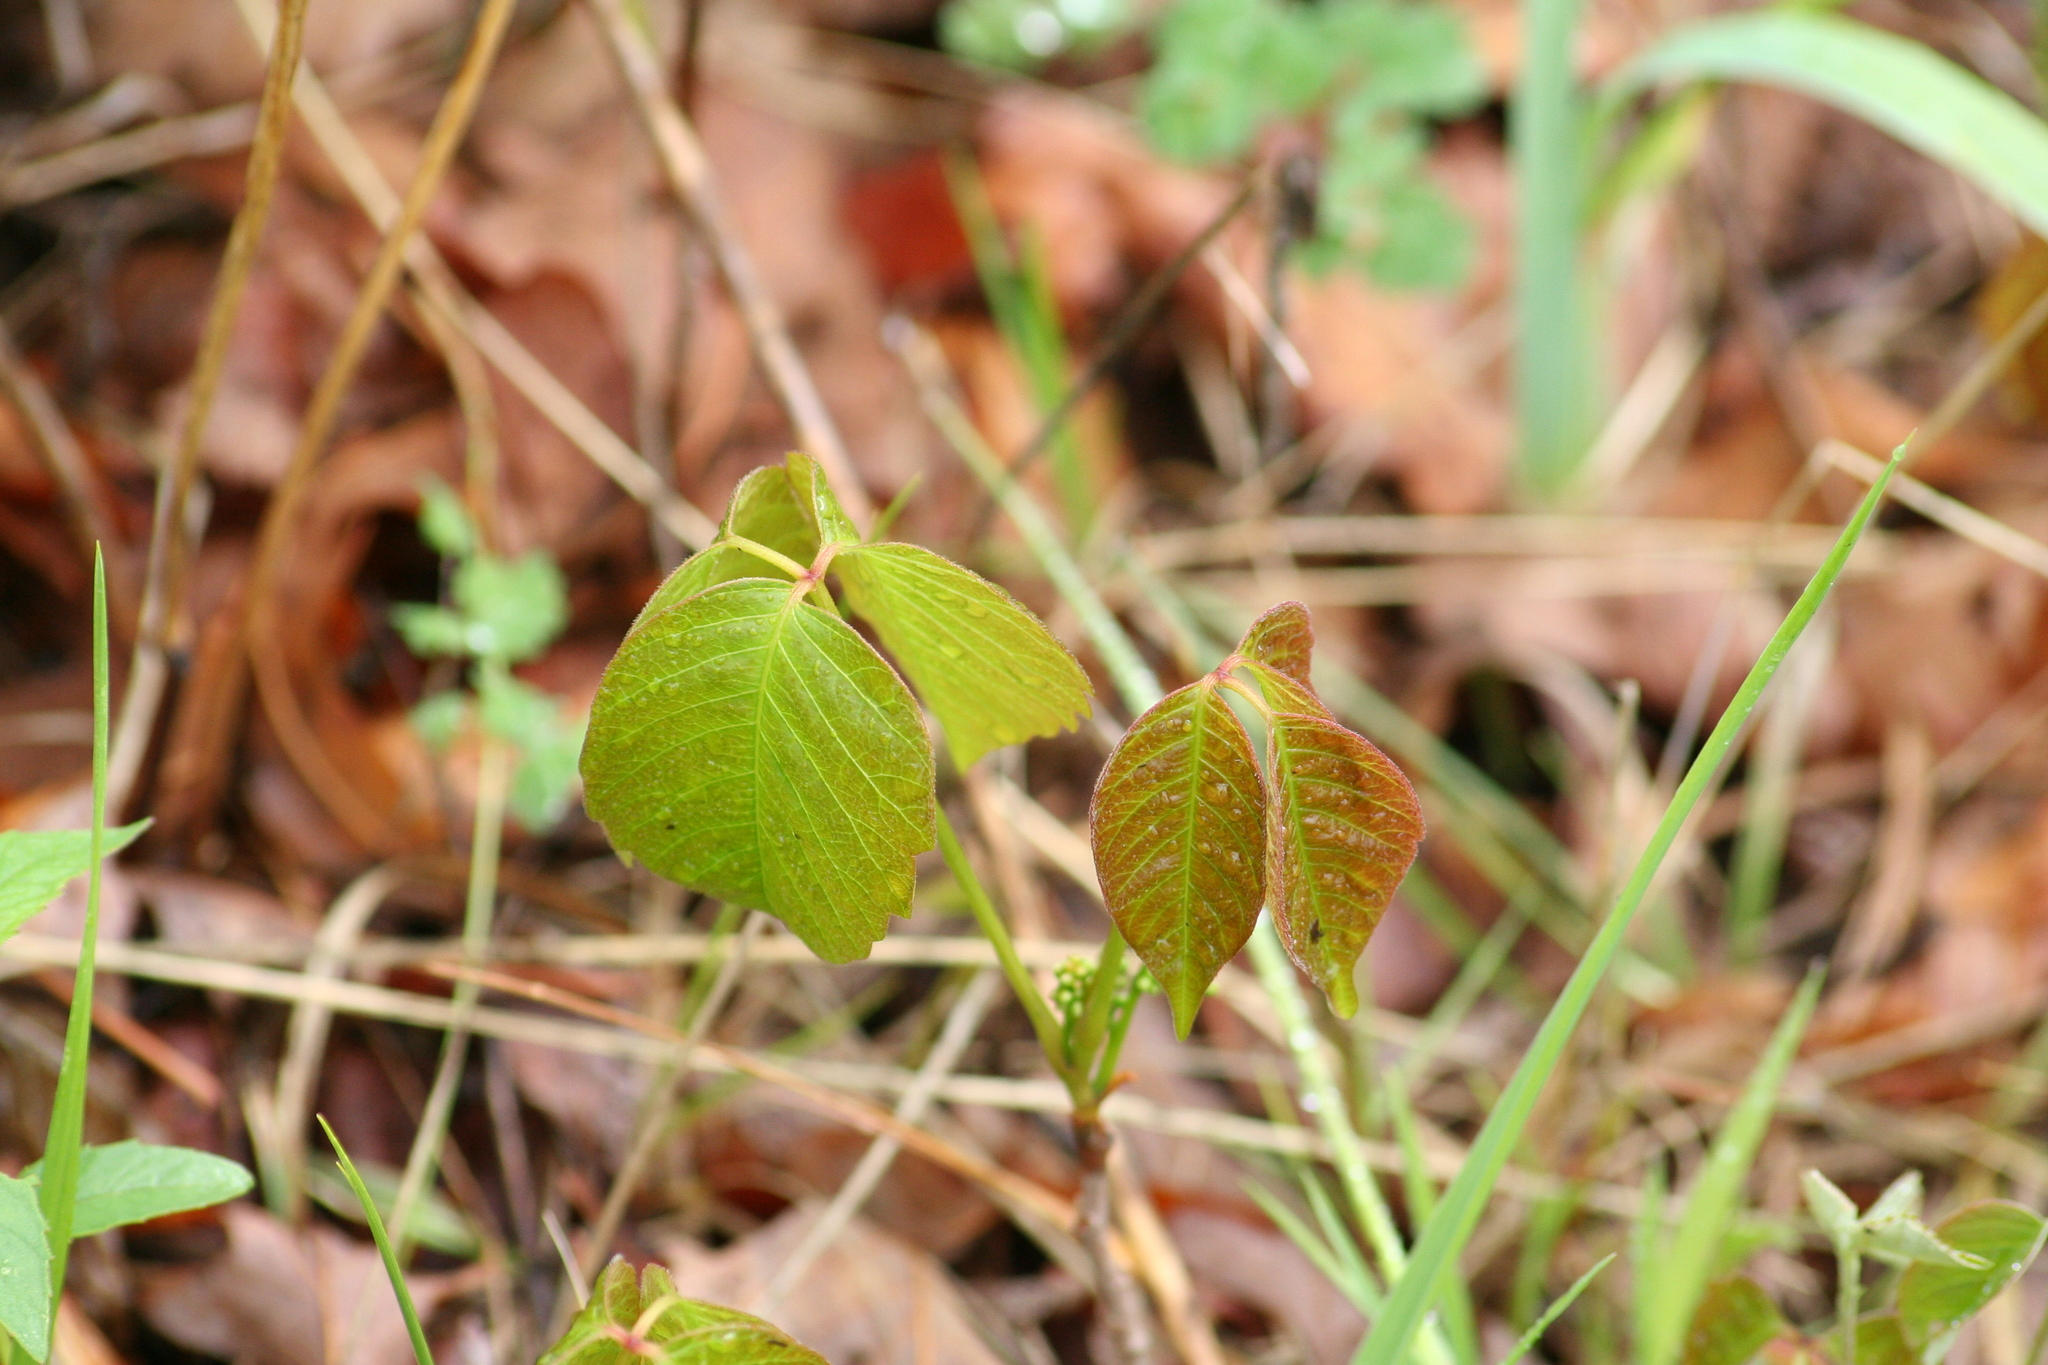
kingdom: Plantae
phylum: Tracheophyta
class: Magnoliopsida
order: Sapindales
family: Anacardiaceae
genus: Toxicodendron
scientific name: Toxicodendron rydbergii
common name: Rydberg's poison-ivy
